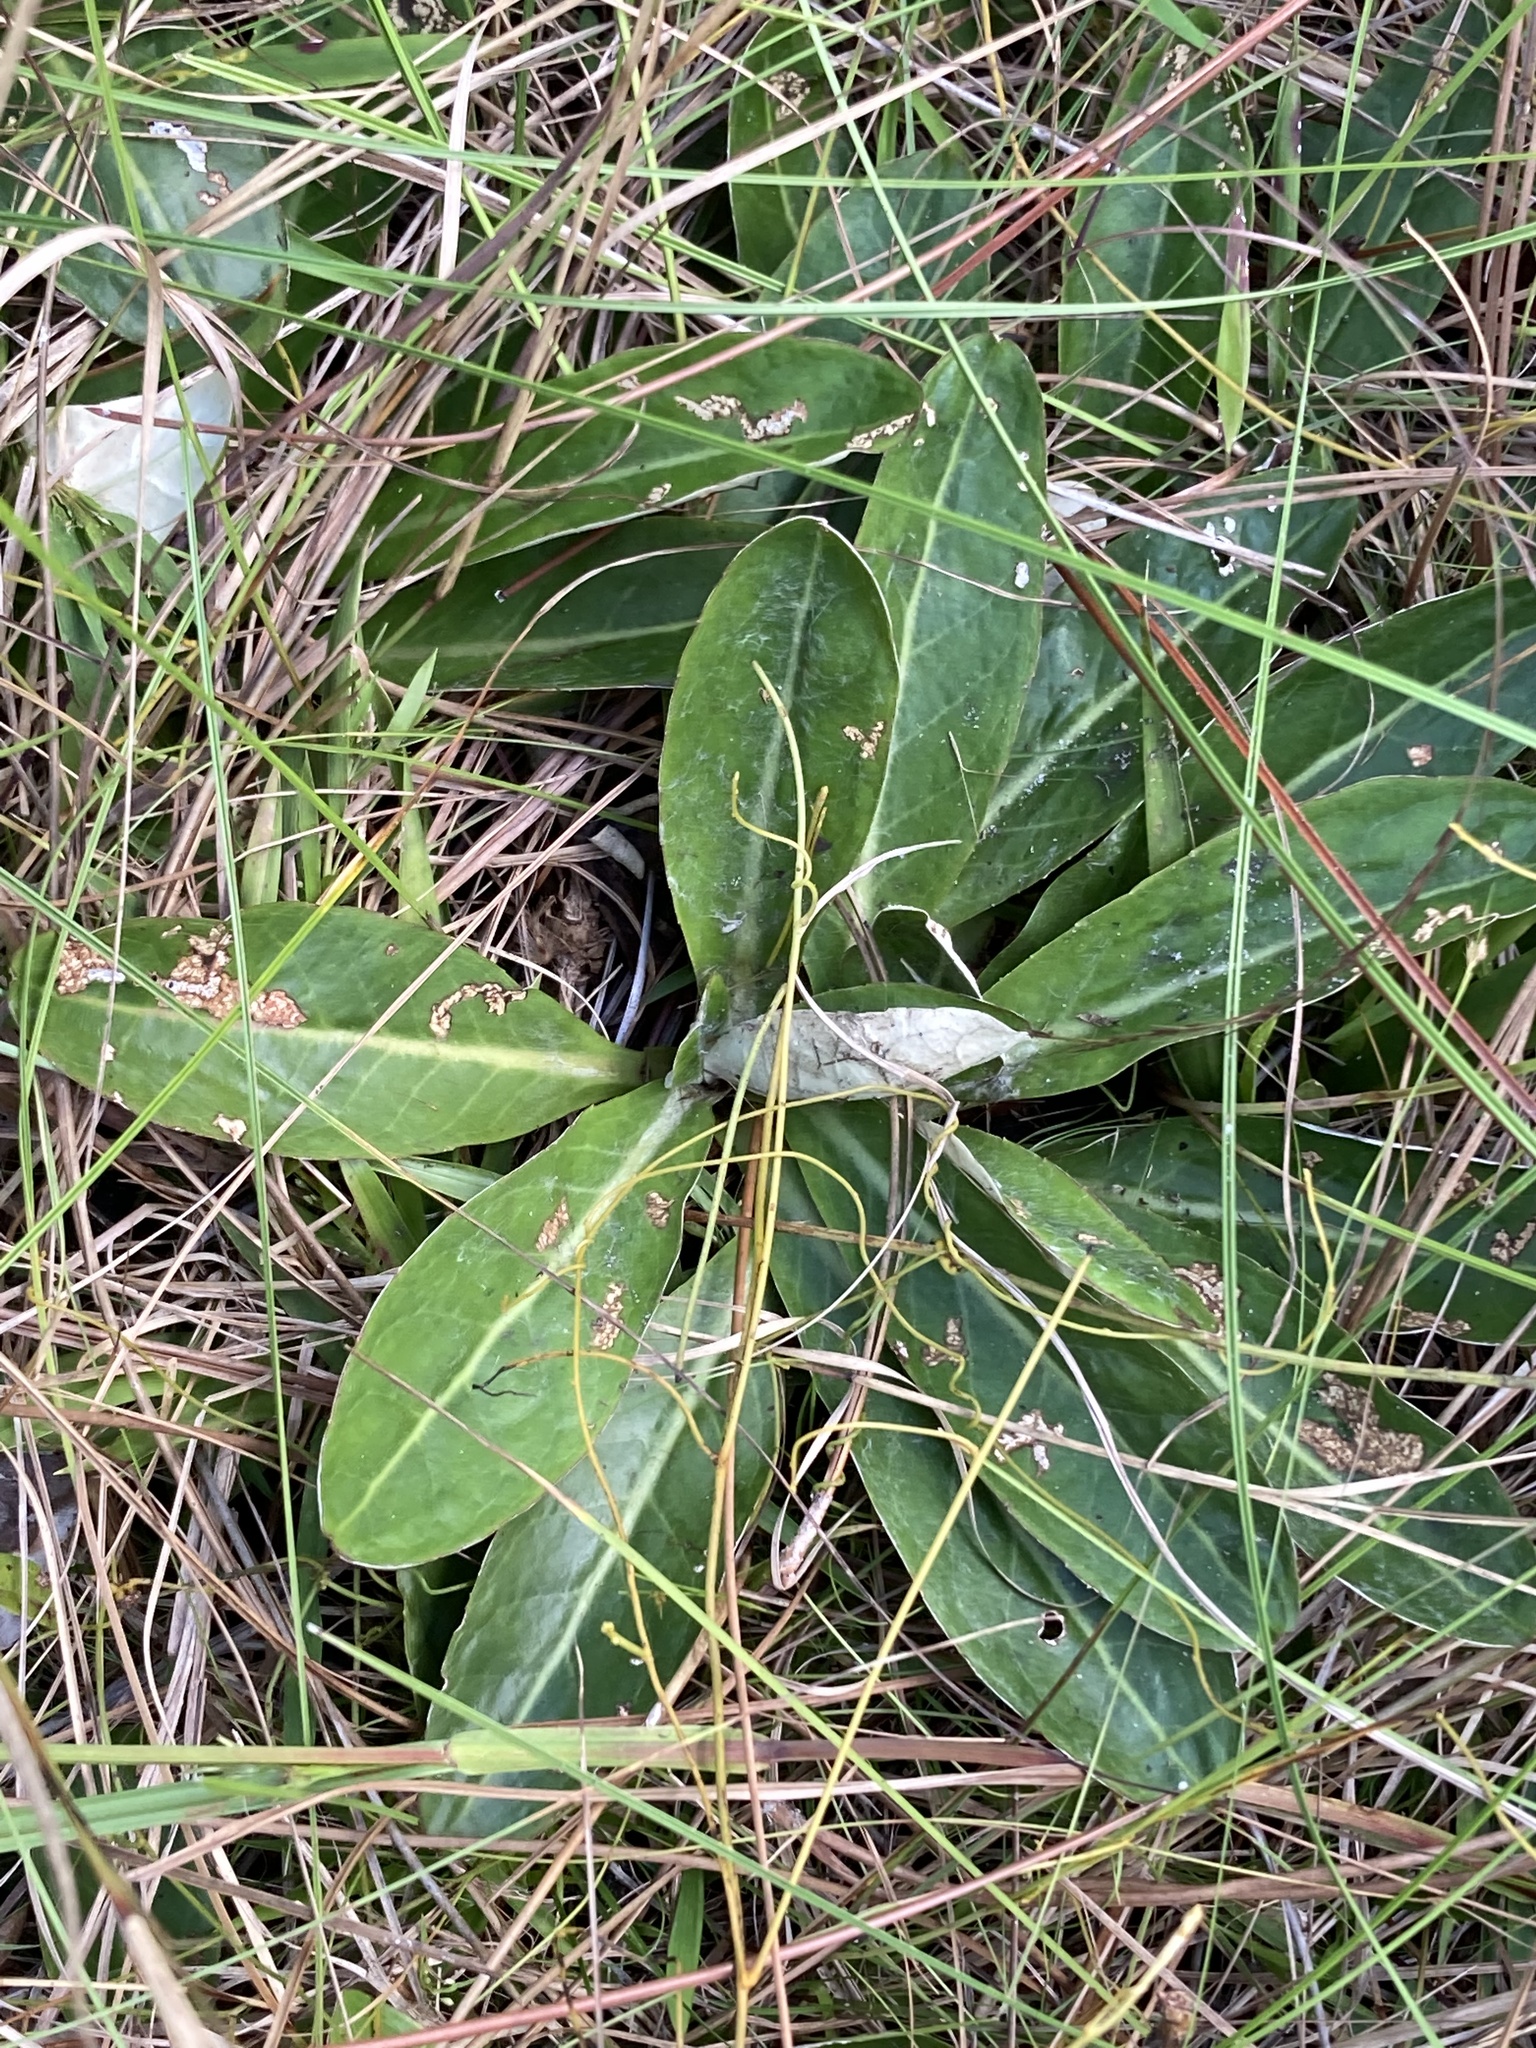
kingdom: Plantae
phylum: Tracheophyta
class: Magnoliopsida
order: Asterales
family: Asteraceae
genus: Chaptalia
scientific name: Chaptalia tomentosa
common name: Woolly sunbonnet
